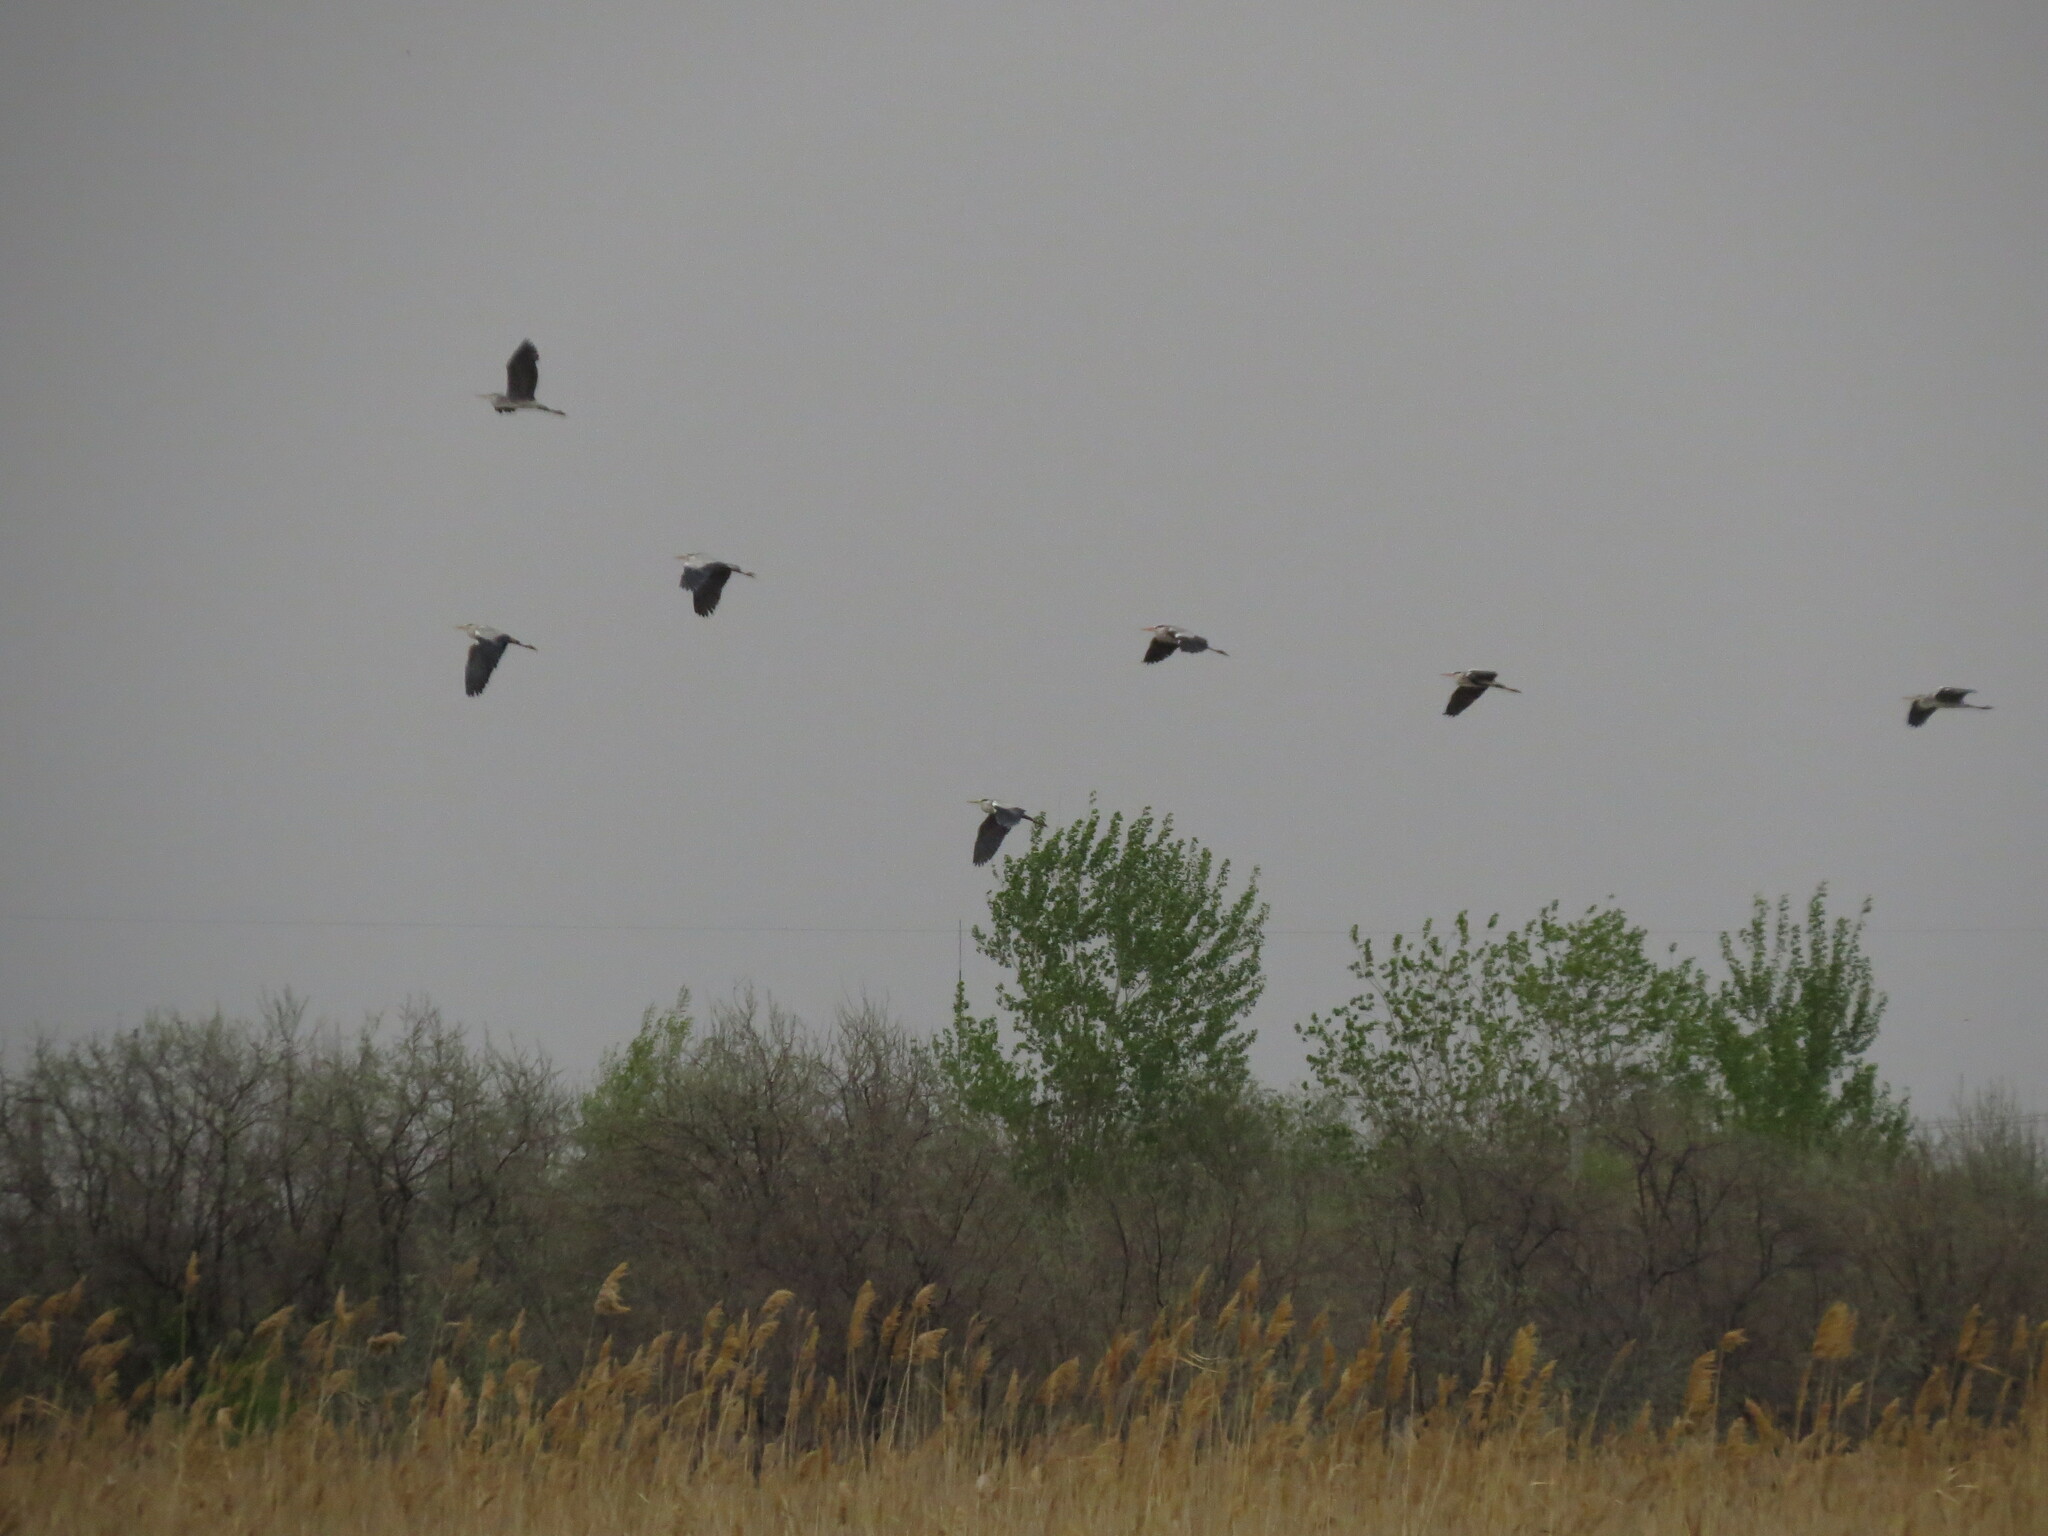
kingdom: Animalia
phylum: Chordata
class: Aves
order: Pelecaniformes
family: Ardeidae
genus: Ardea
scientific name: Ardea cinerea
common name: Grey heron
